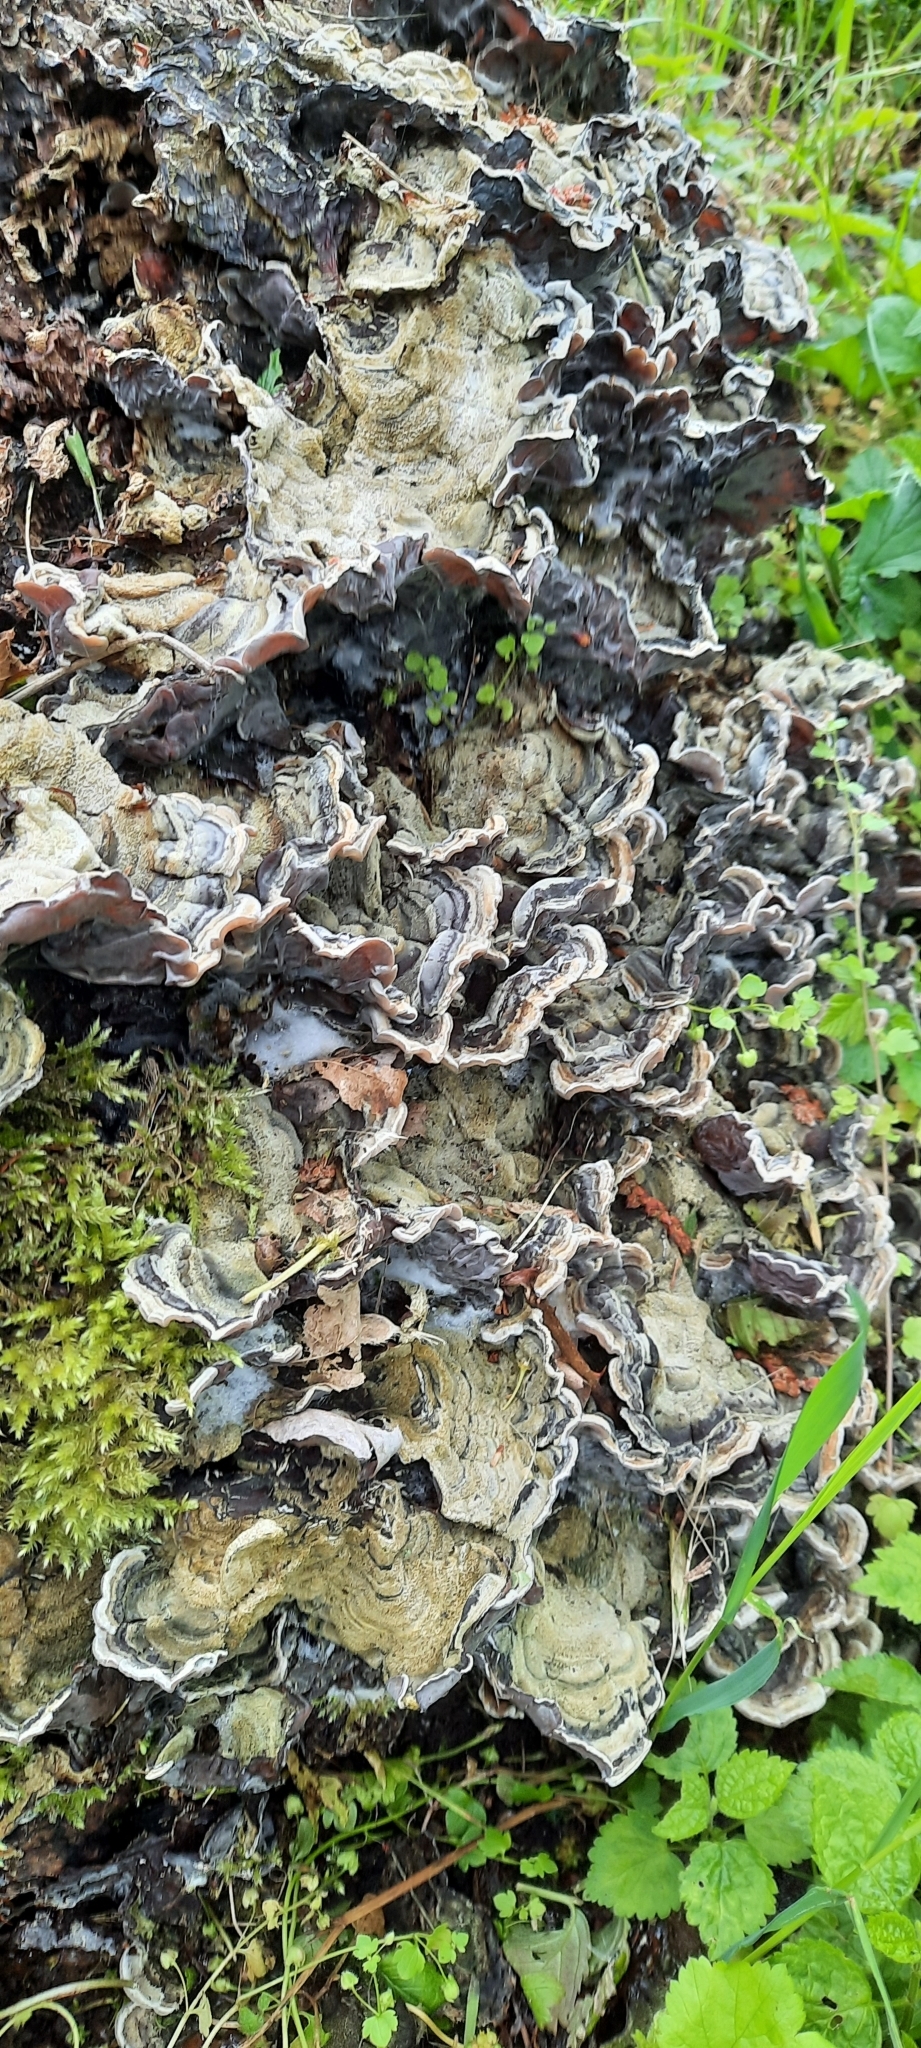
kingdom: Fungi
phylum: Basidiomycota
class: Agaricomycetes
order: Auriculariales
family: Auriculariaceae
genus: Auricularia
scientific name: Auricularia mesenterica
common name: Tripe fungus
